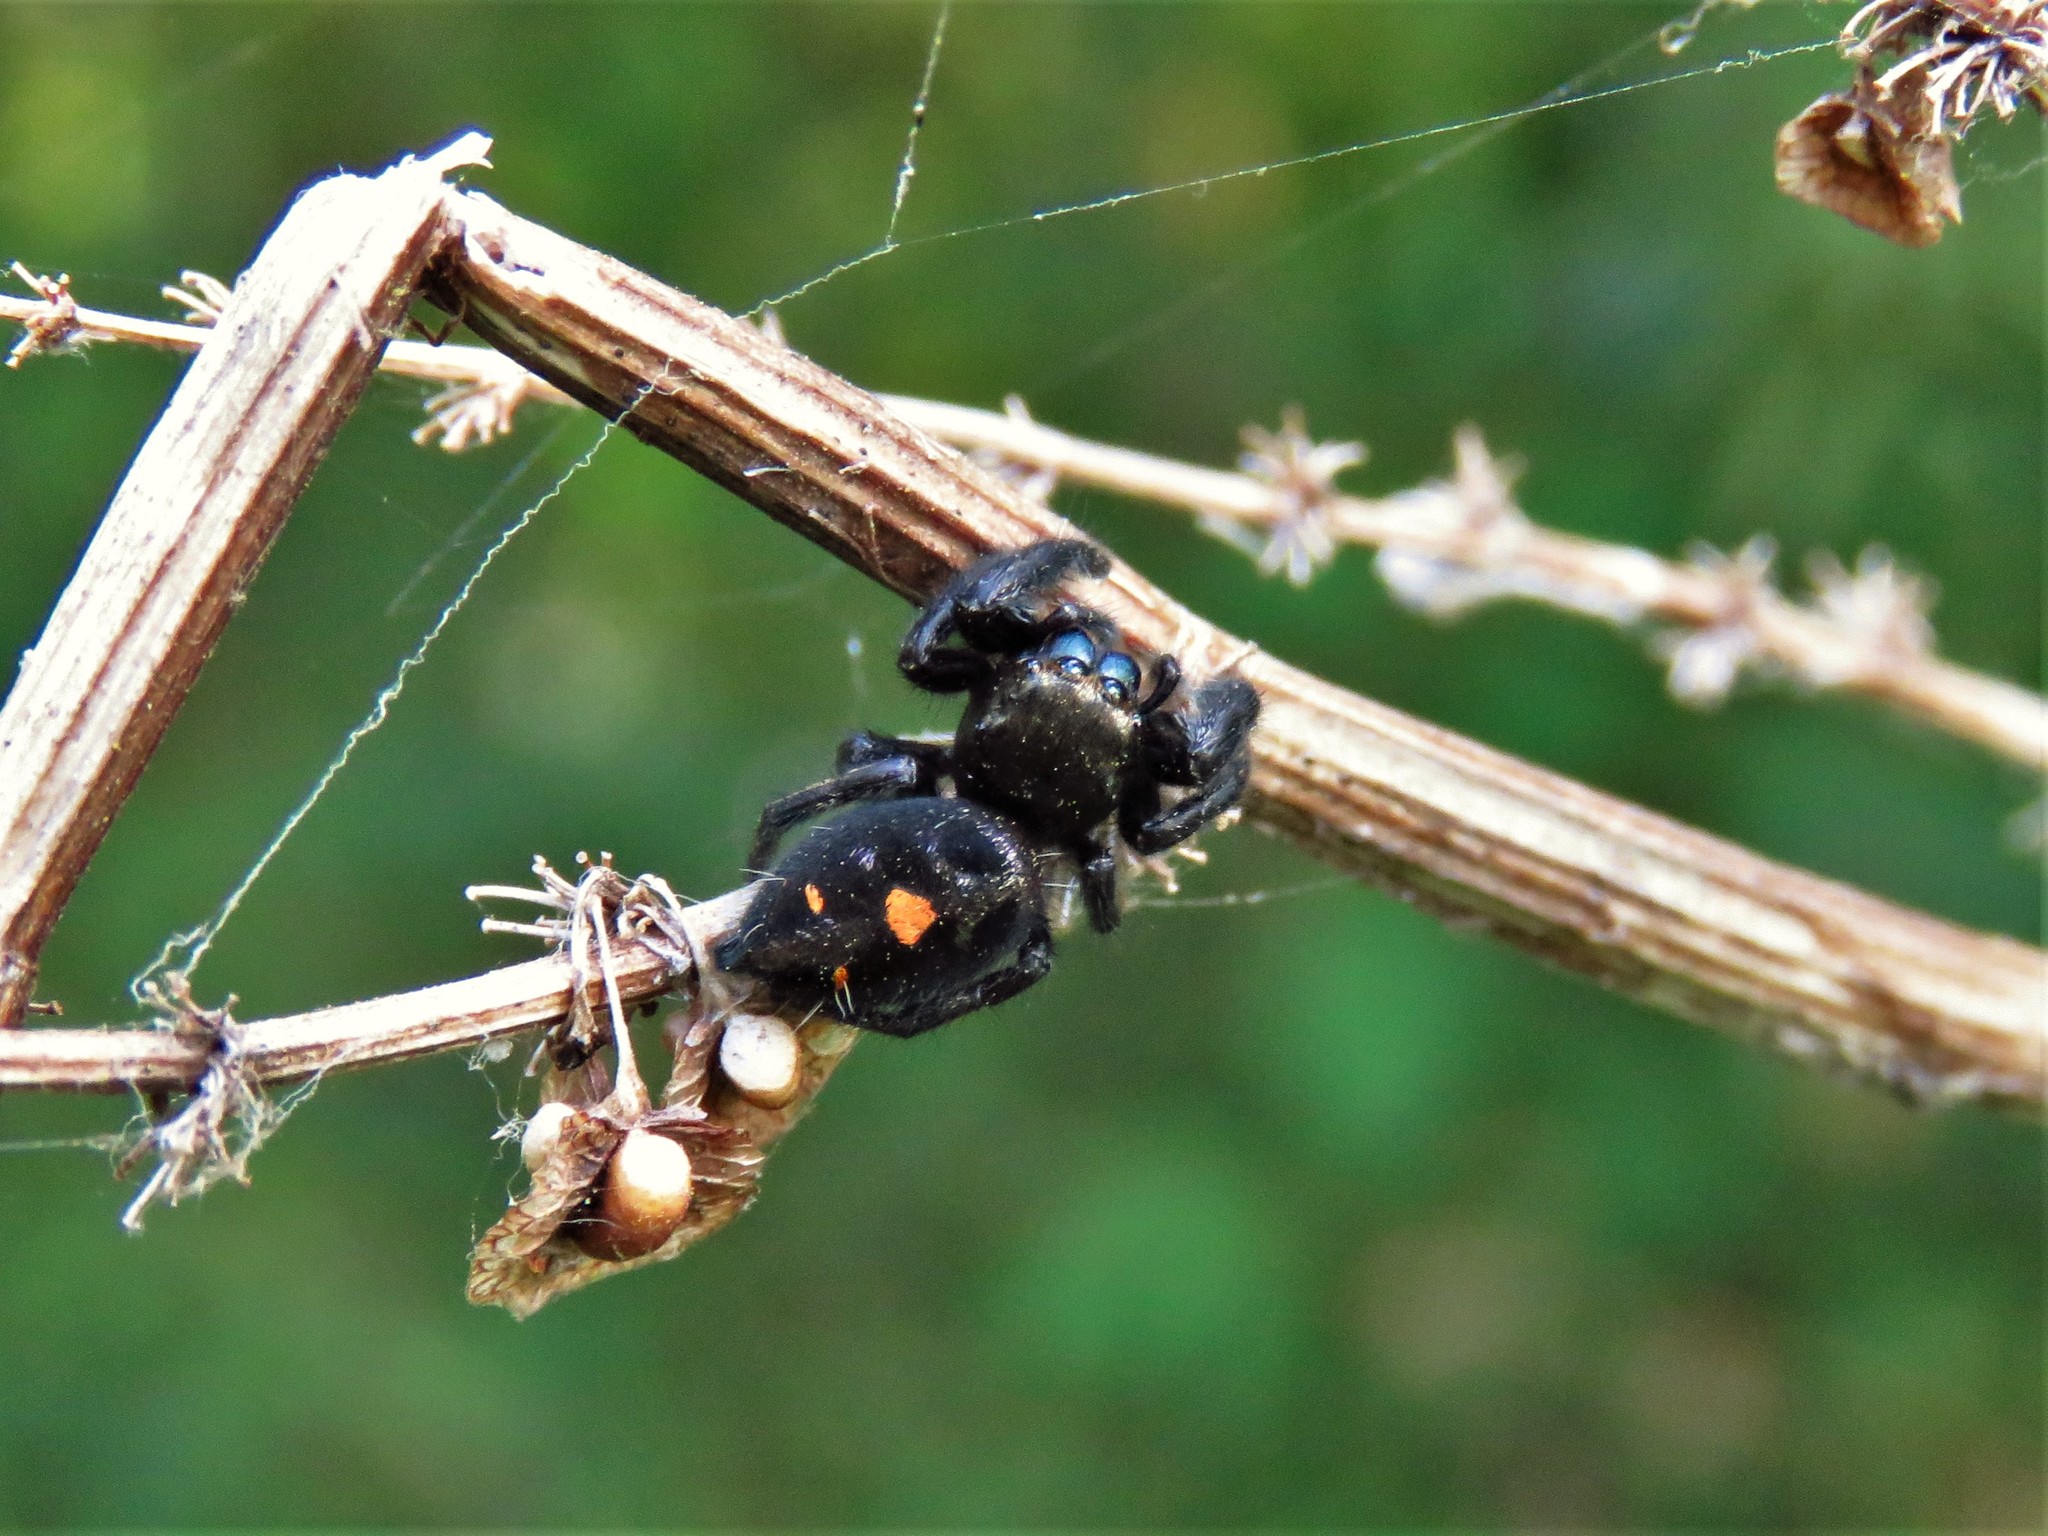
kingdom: Animalia
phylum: Arthropoda
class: Arachnida
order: Araneae
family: Salticidae
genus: Phidippus
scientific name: Phidippus audax
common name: Bold jumper
